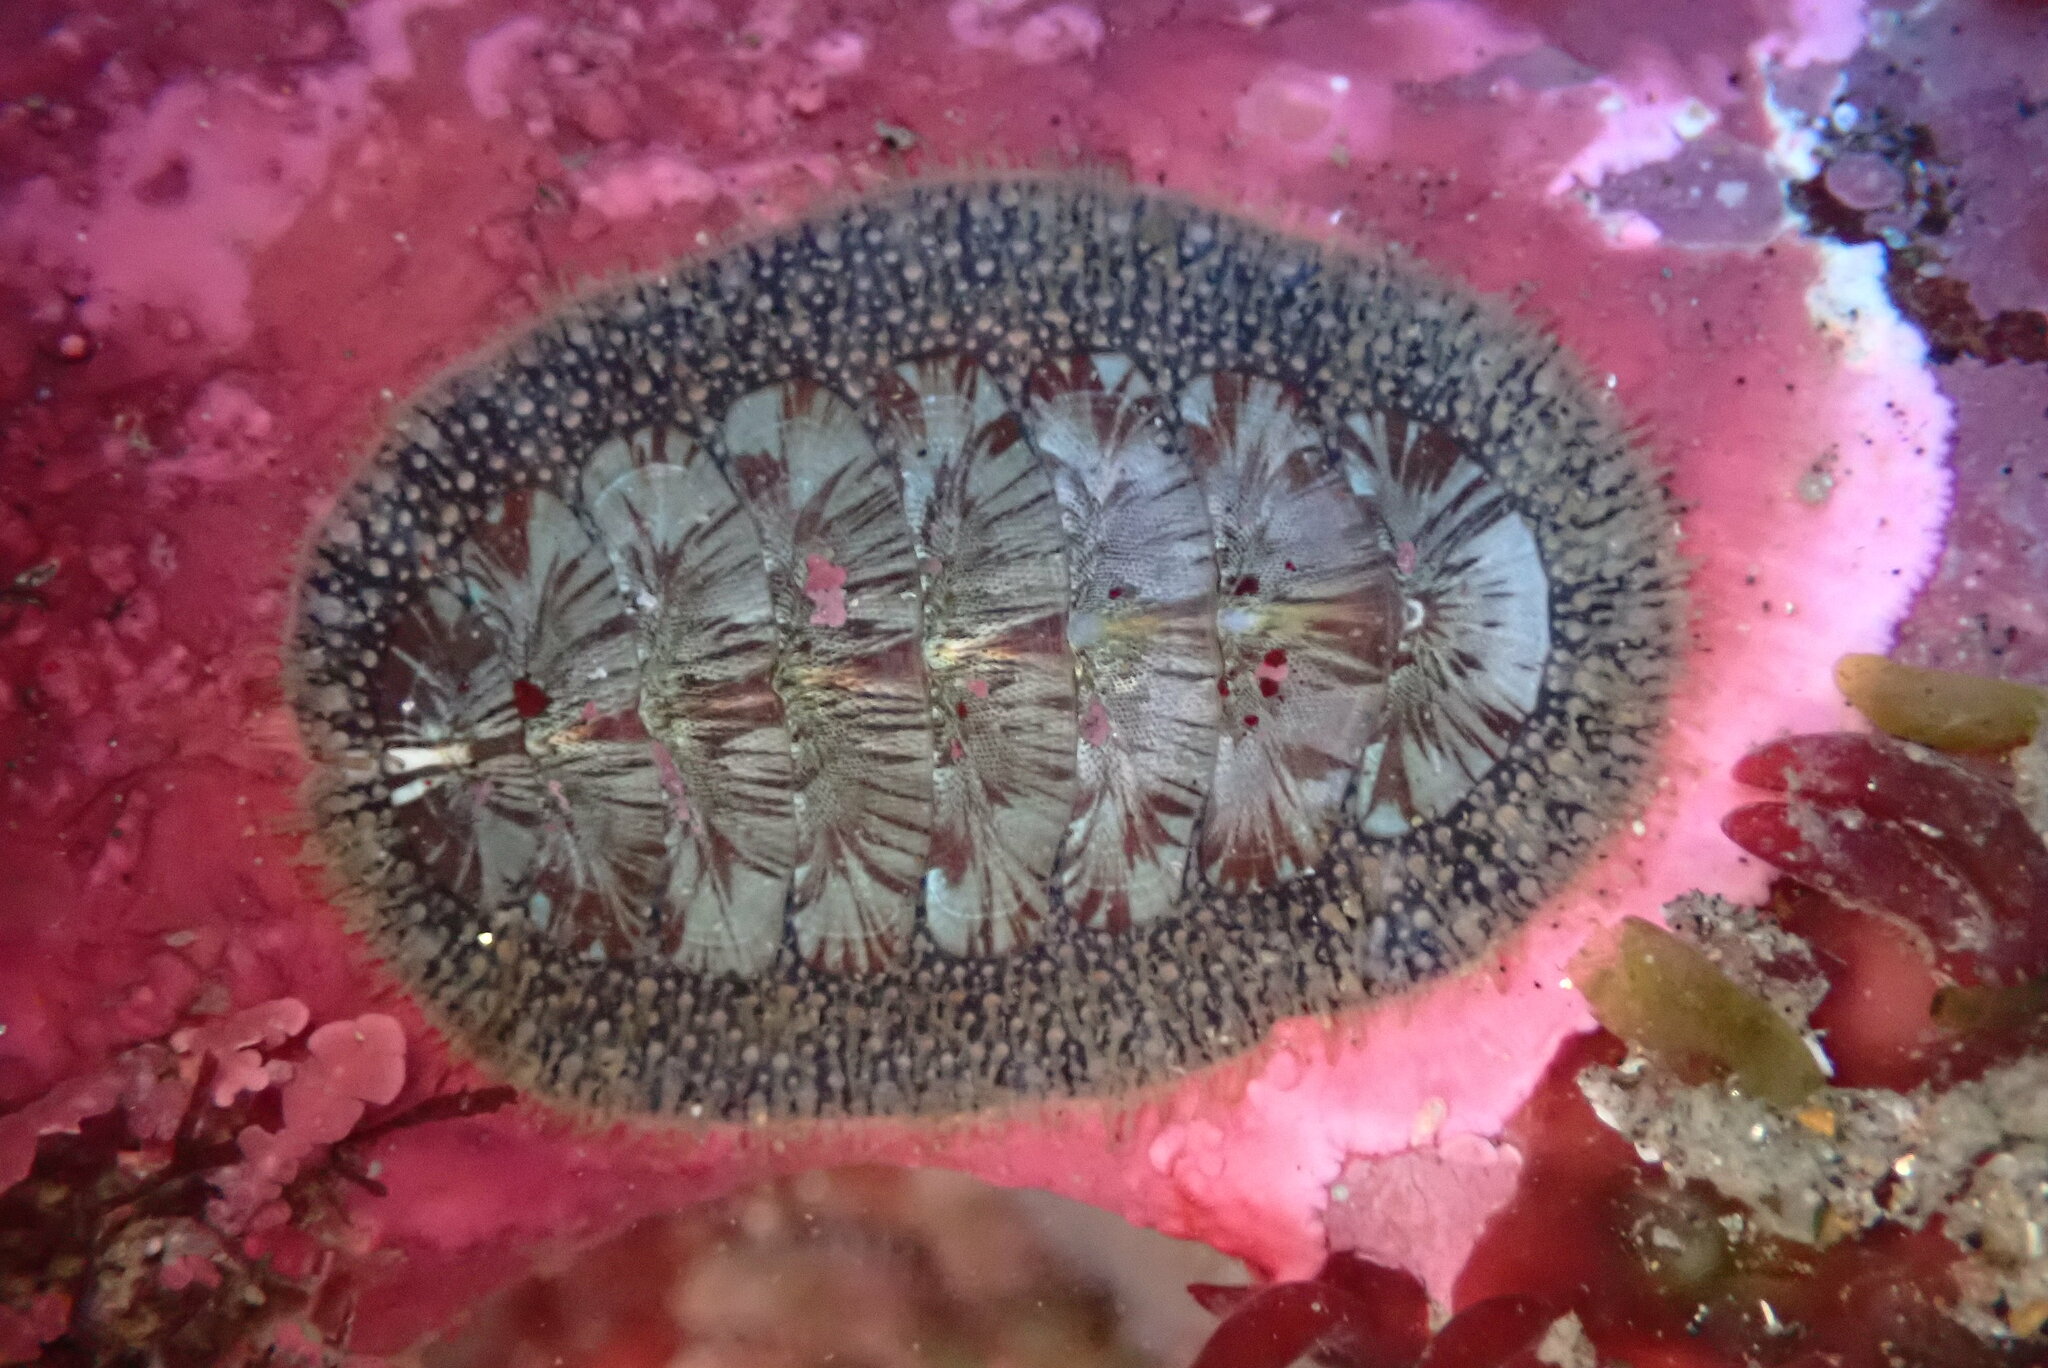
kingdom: Animalia
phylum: Mollusca
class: Polyplacophora
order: Chitonida
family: Mopaliidae
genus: Mopalia
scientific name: Mopalia lignosa
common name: Woody chiton
